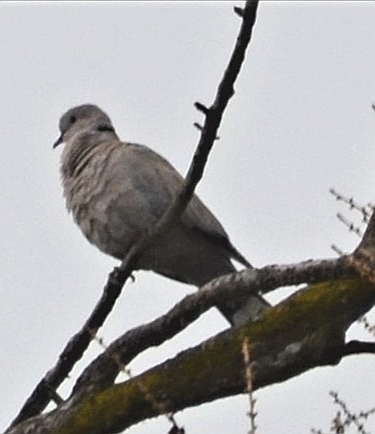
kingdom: Animalia
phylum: Chordata
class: Aves
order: Columbiformes
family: Columbidae
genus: Streptopelia
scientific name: Streptopelia decaocto
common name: Eurasian collared dove
